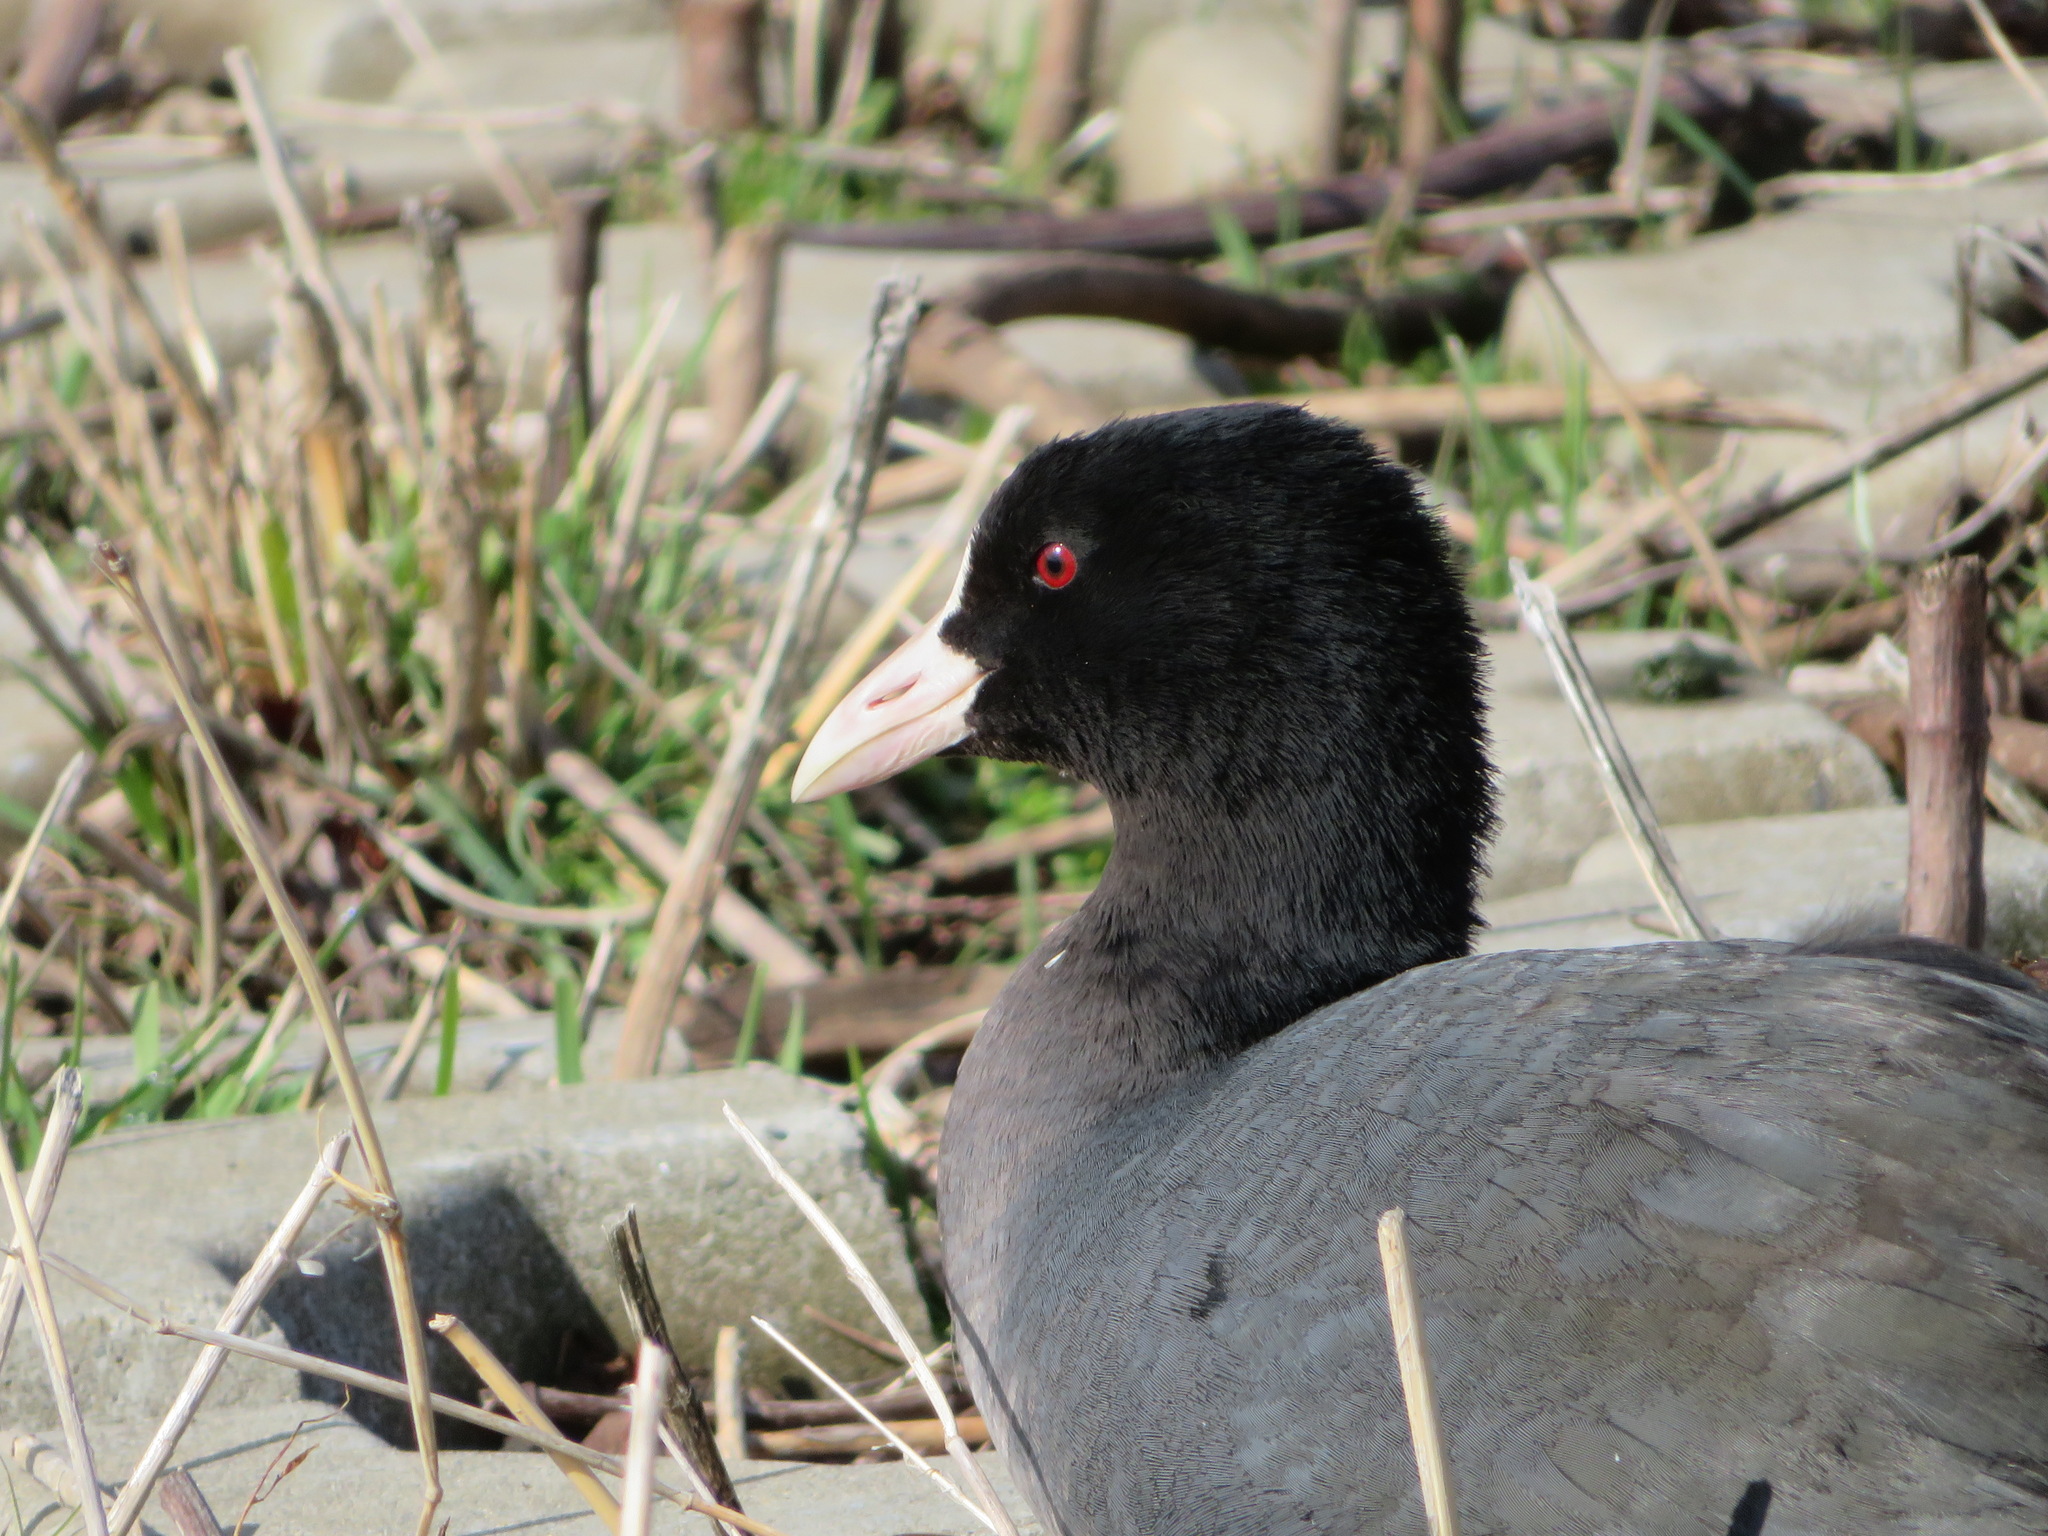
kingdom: Animalia
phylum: Chordata
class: Aves
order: Gruiformes
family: Rallidae
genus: Fulica
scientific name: Fulica atra
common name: Eurasian coot
